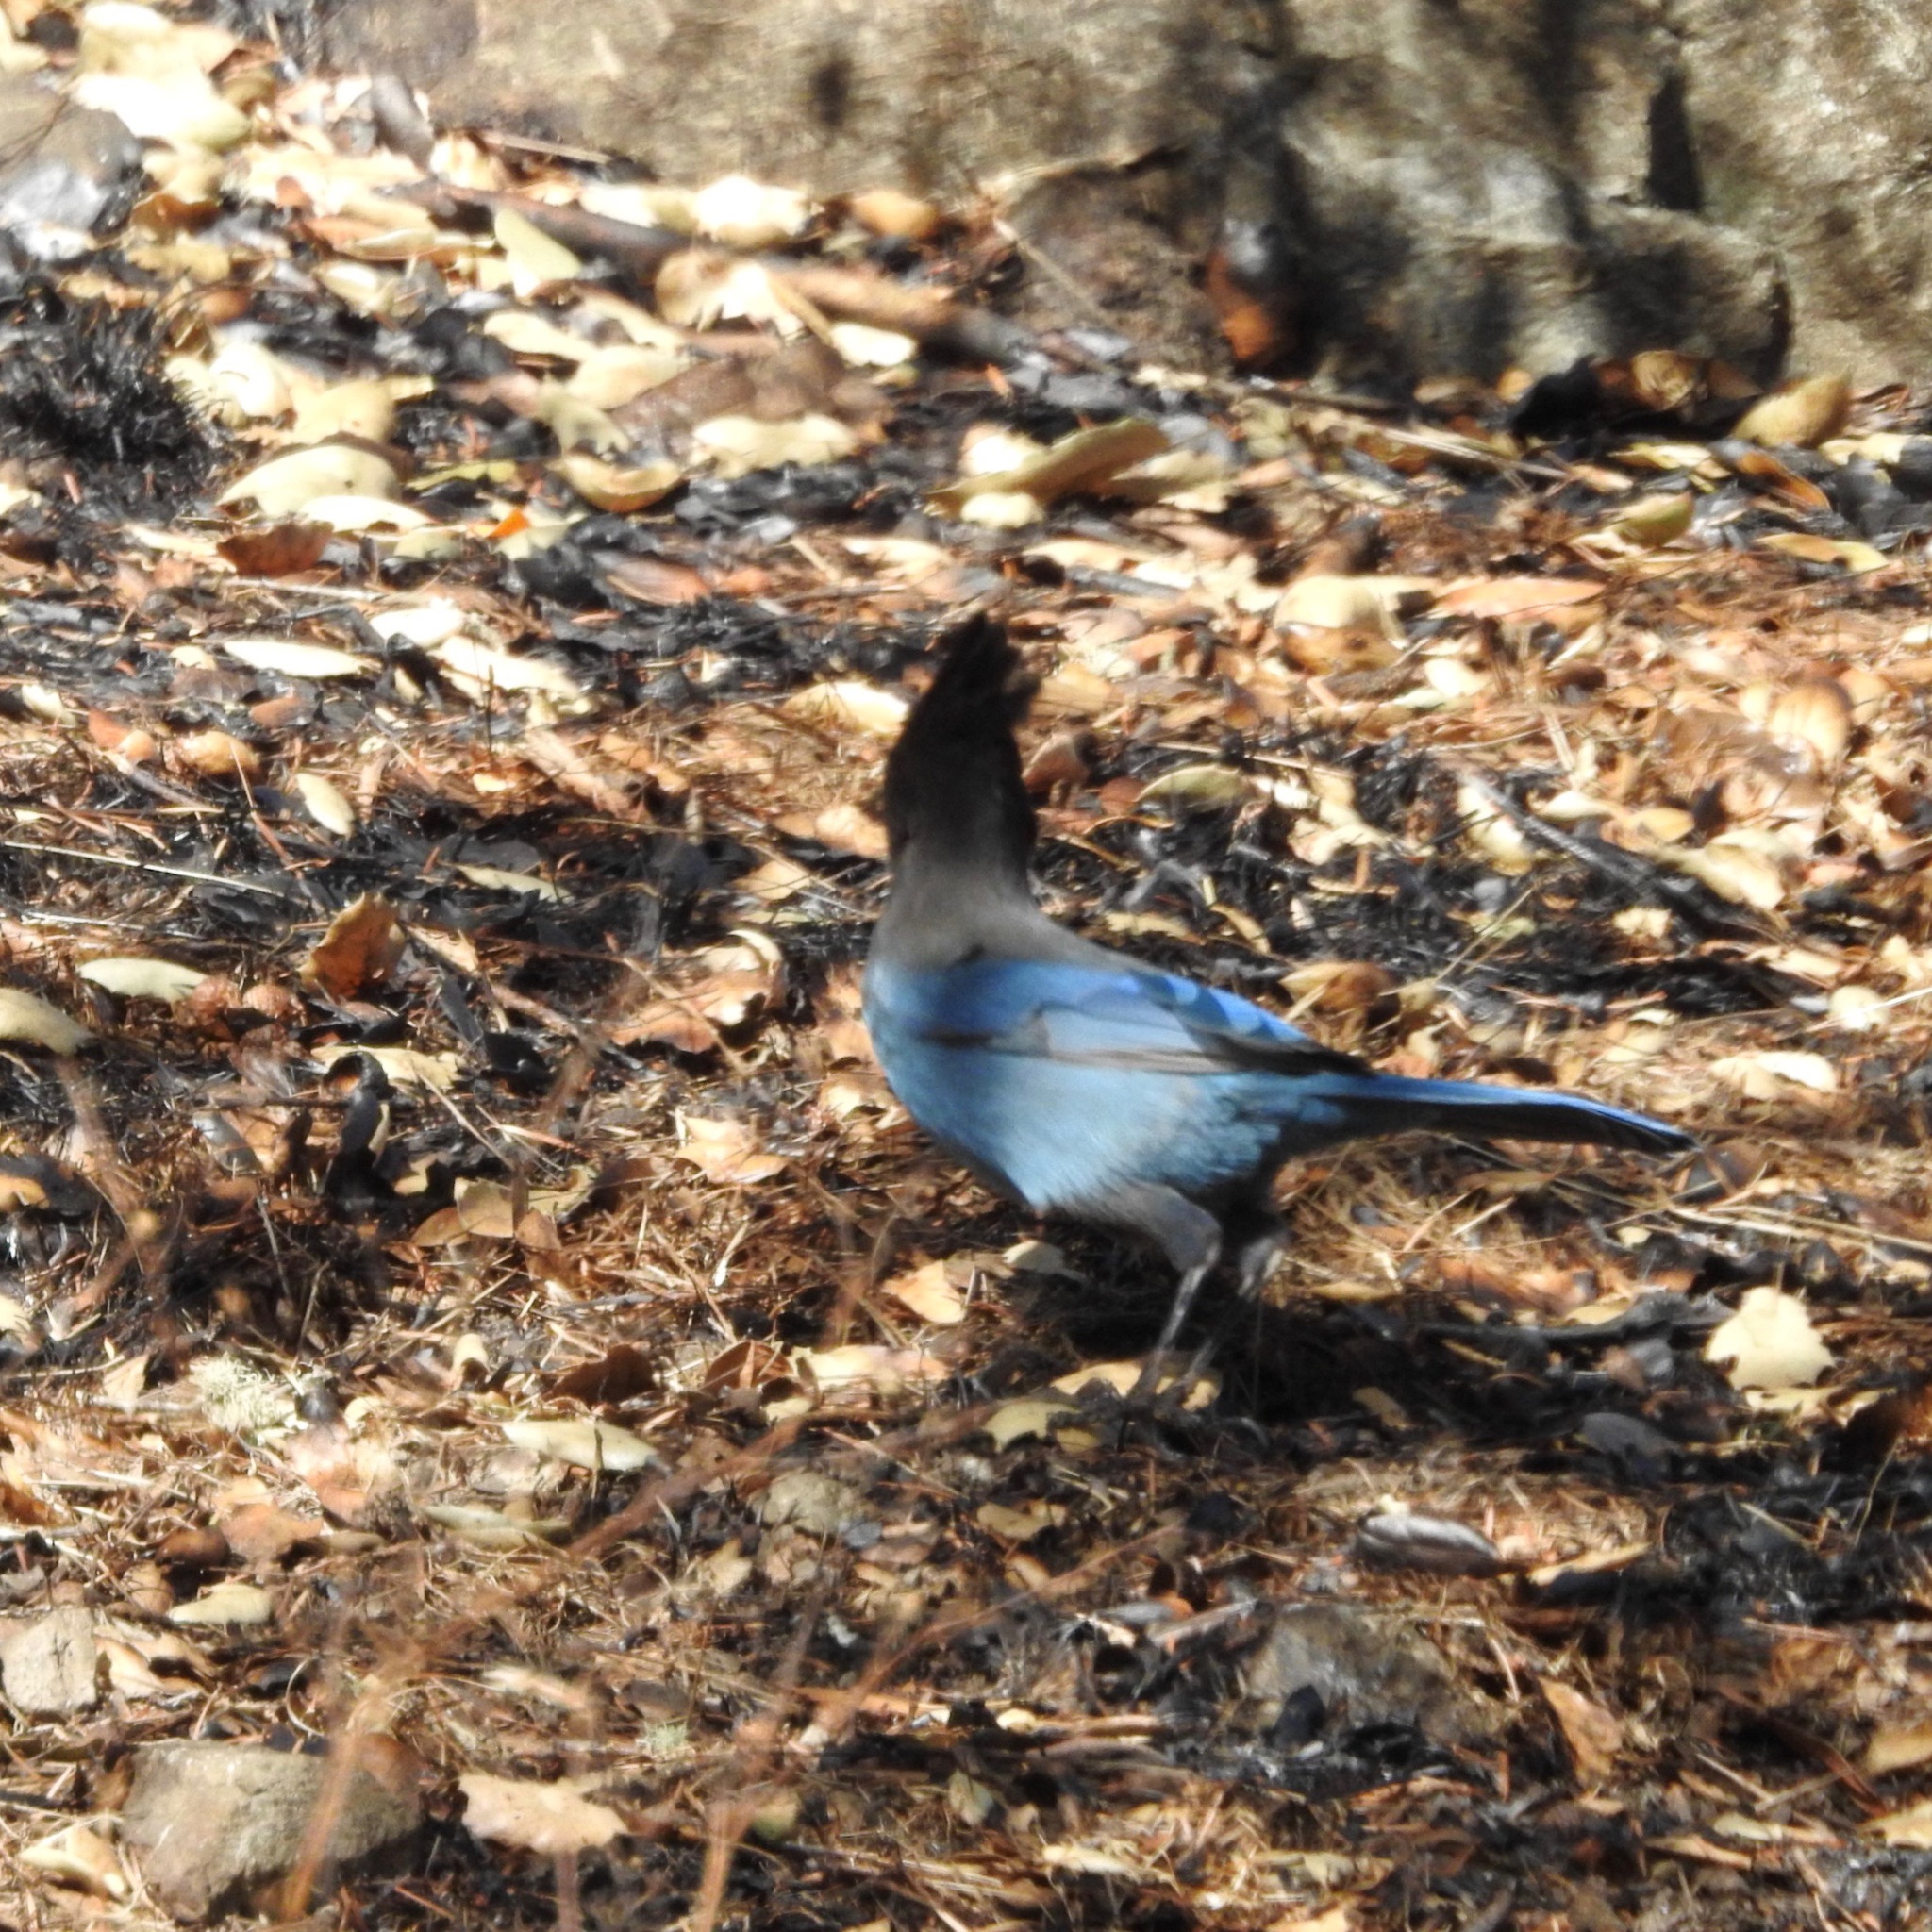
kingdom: Animalia
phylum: Chordata
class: Aves
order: Passeriformes
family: Corvidae
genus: Cyanocitta
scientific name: Cyanocitta stelleri
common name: Steller's jay
